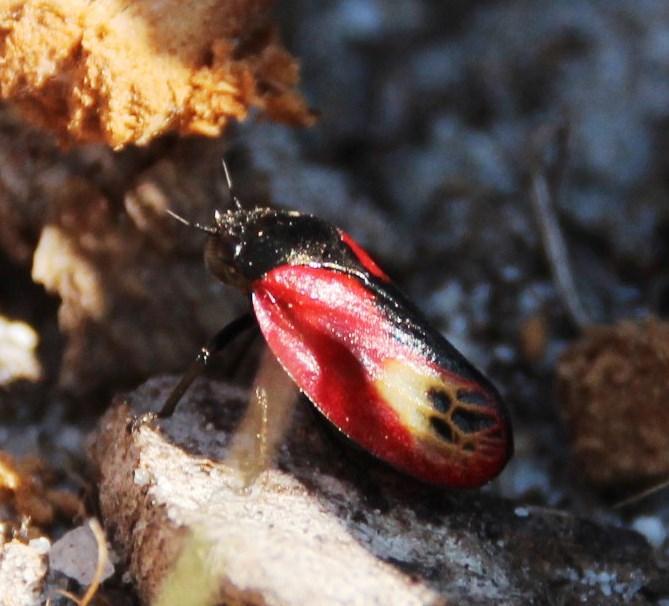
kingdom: Animalia
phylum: Arthropoda
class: Insecta
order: Hemiptera
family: Cercopidae
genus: Rhinaulax
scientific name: Rhinaulax analis
